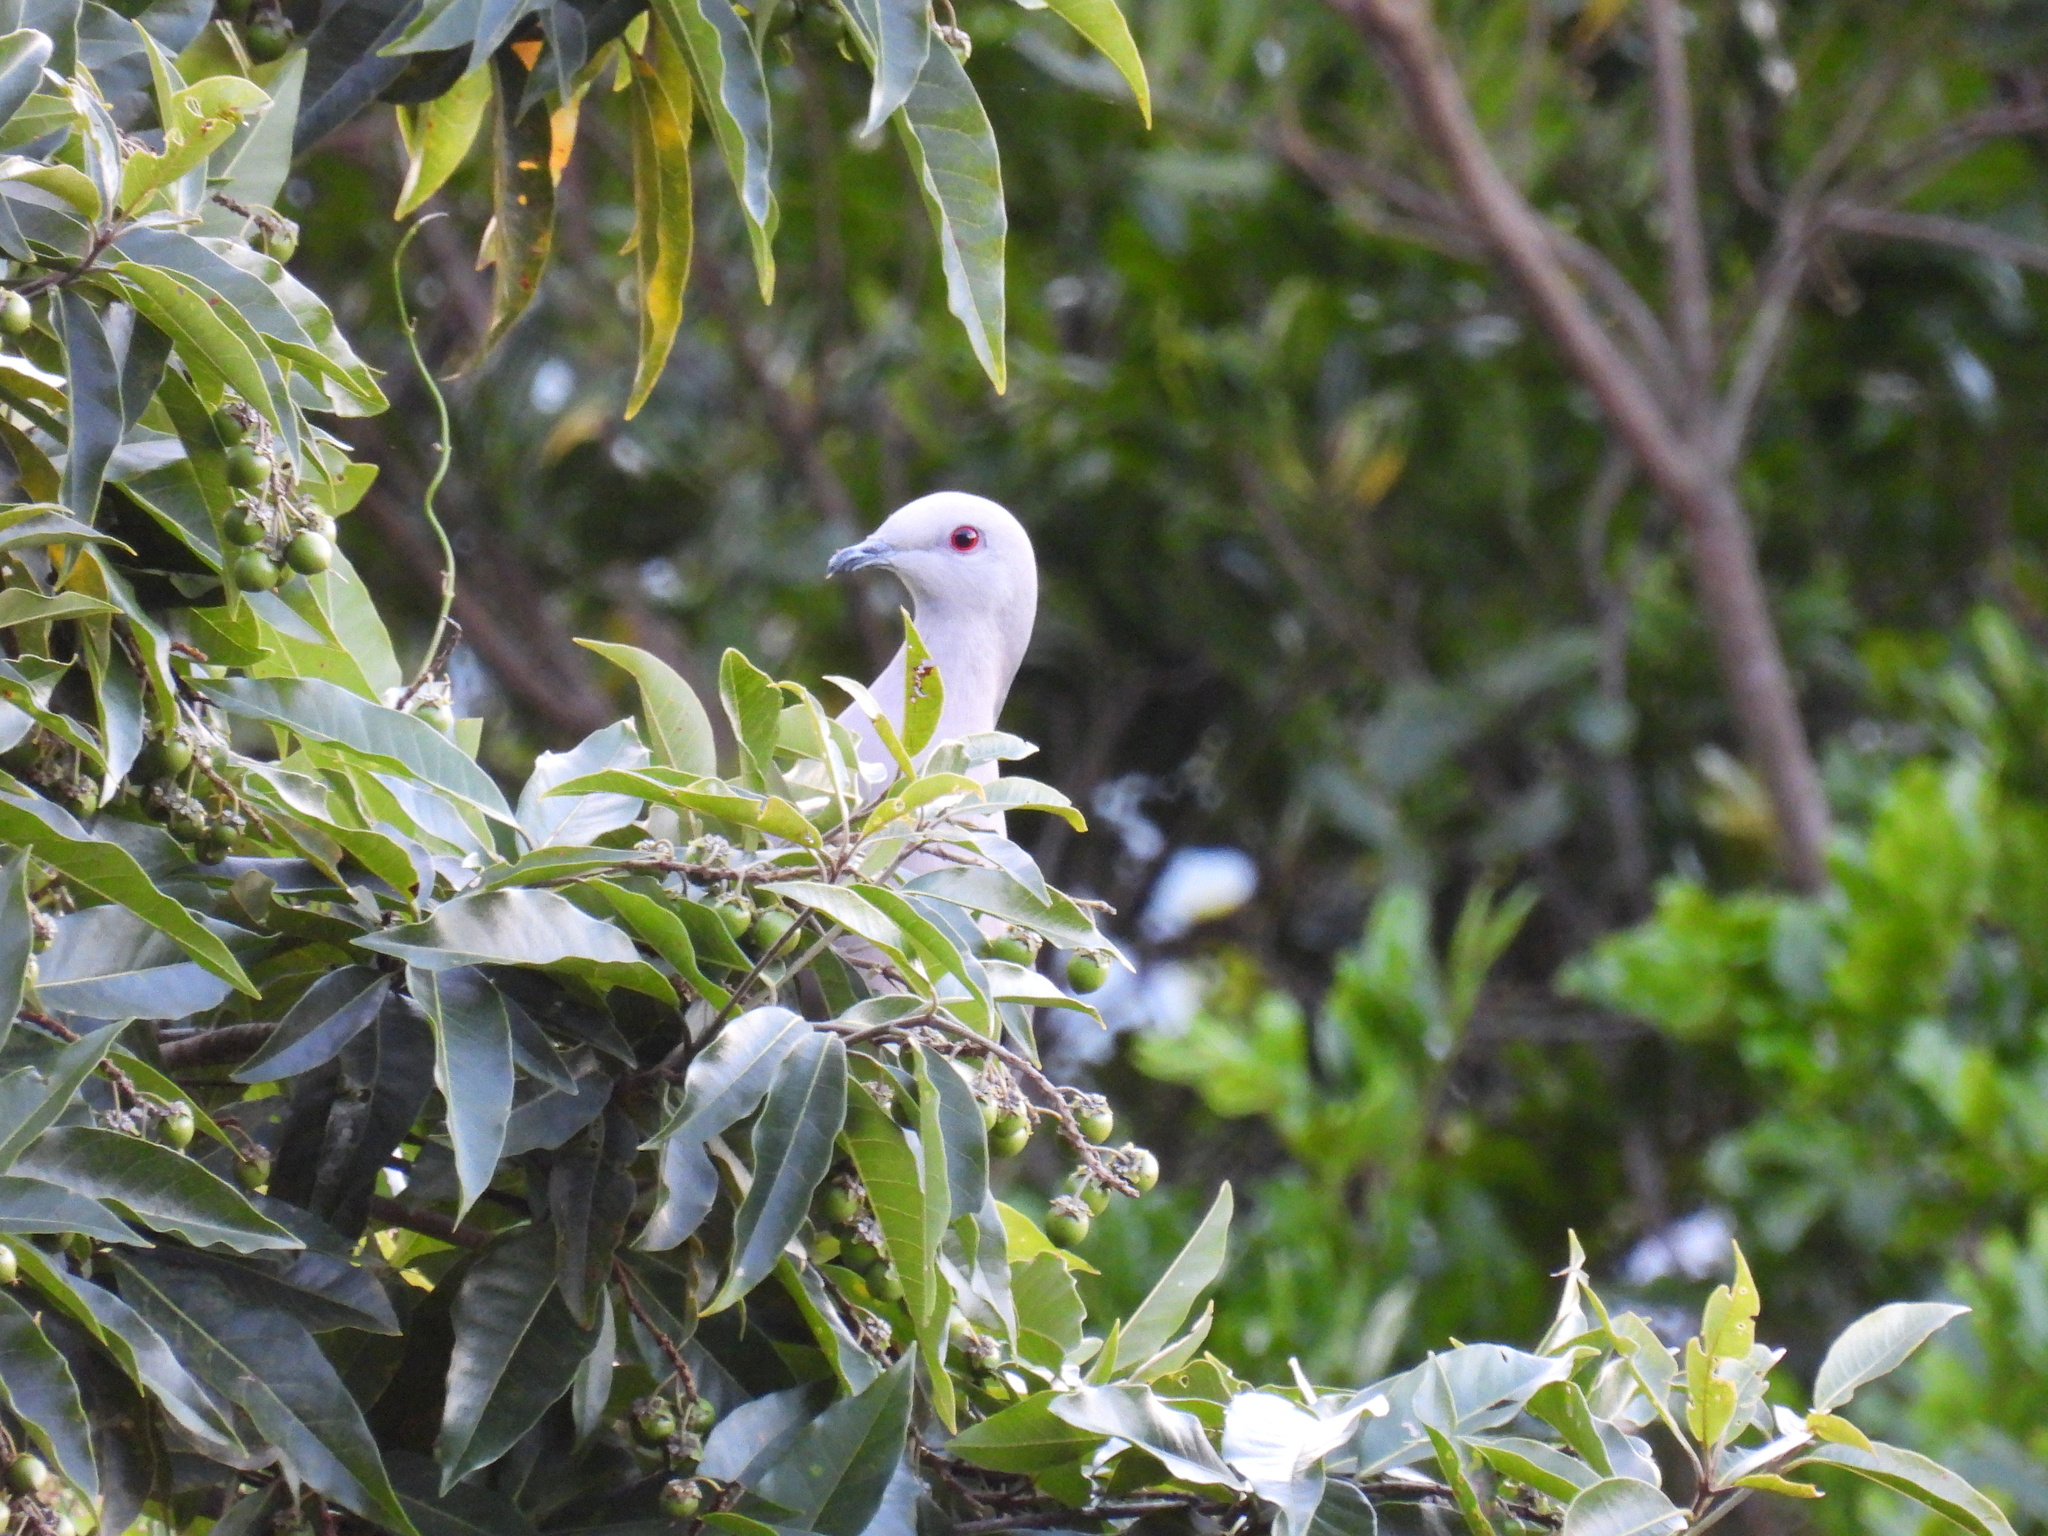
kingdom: Animalia
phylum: Chordata
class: Aves
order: Columbiformes
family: Columbidae
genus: Patagioenas
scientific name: Patagioenas caribaea
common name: Ring-tailed pigeon
